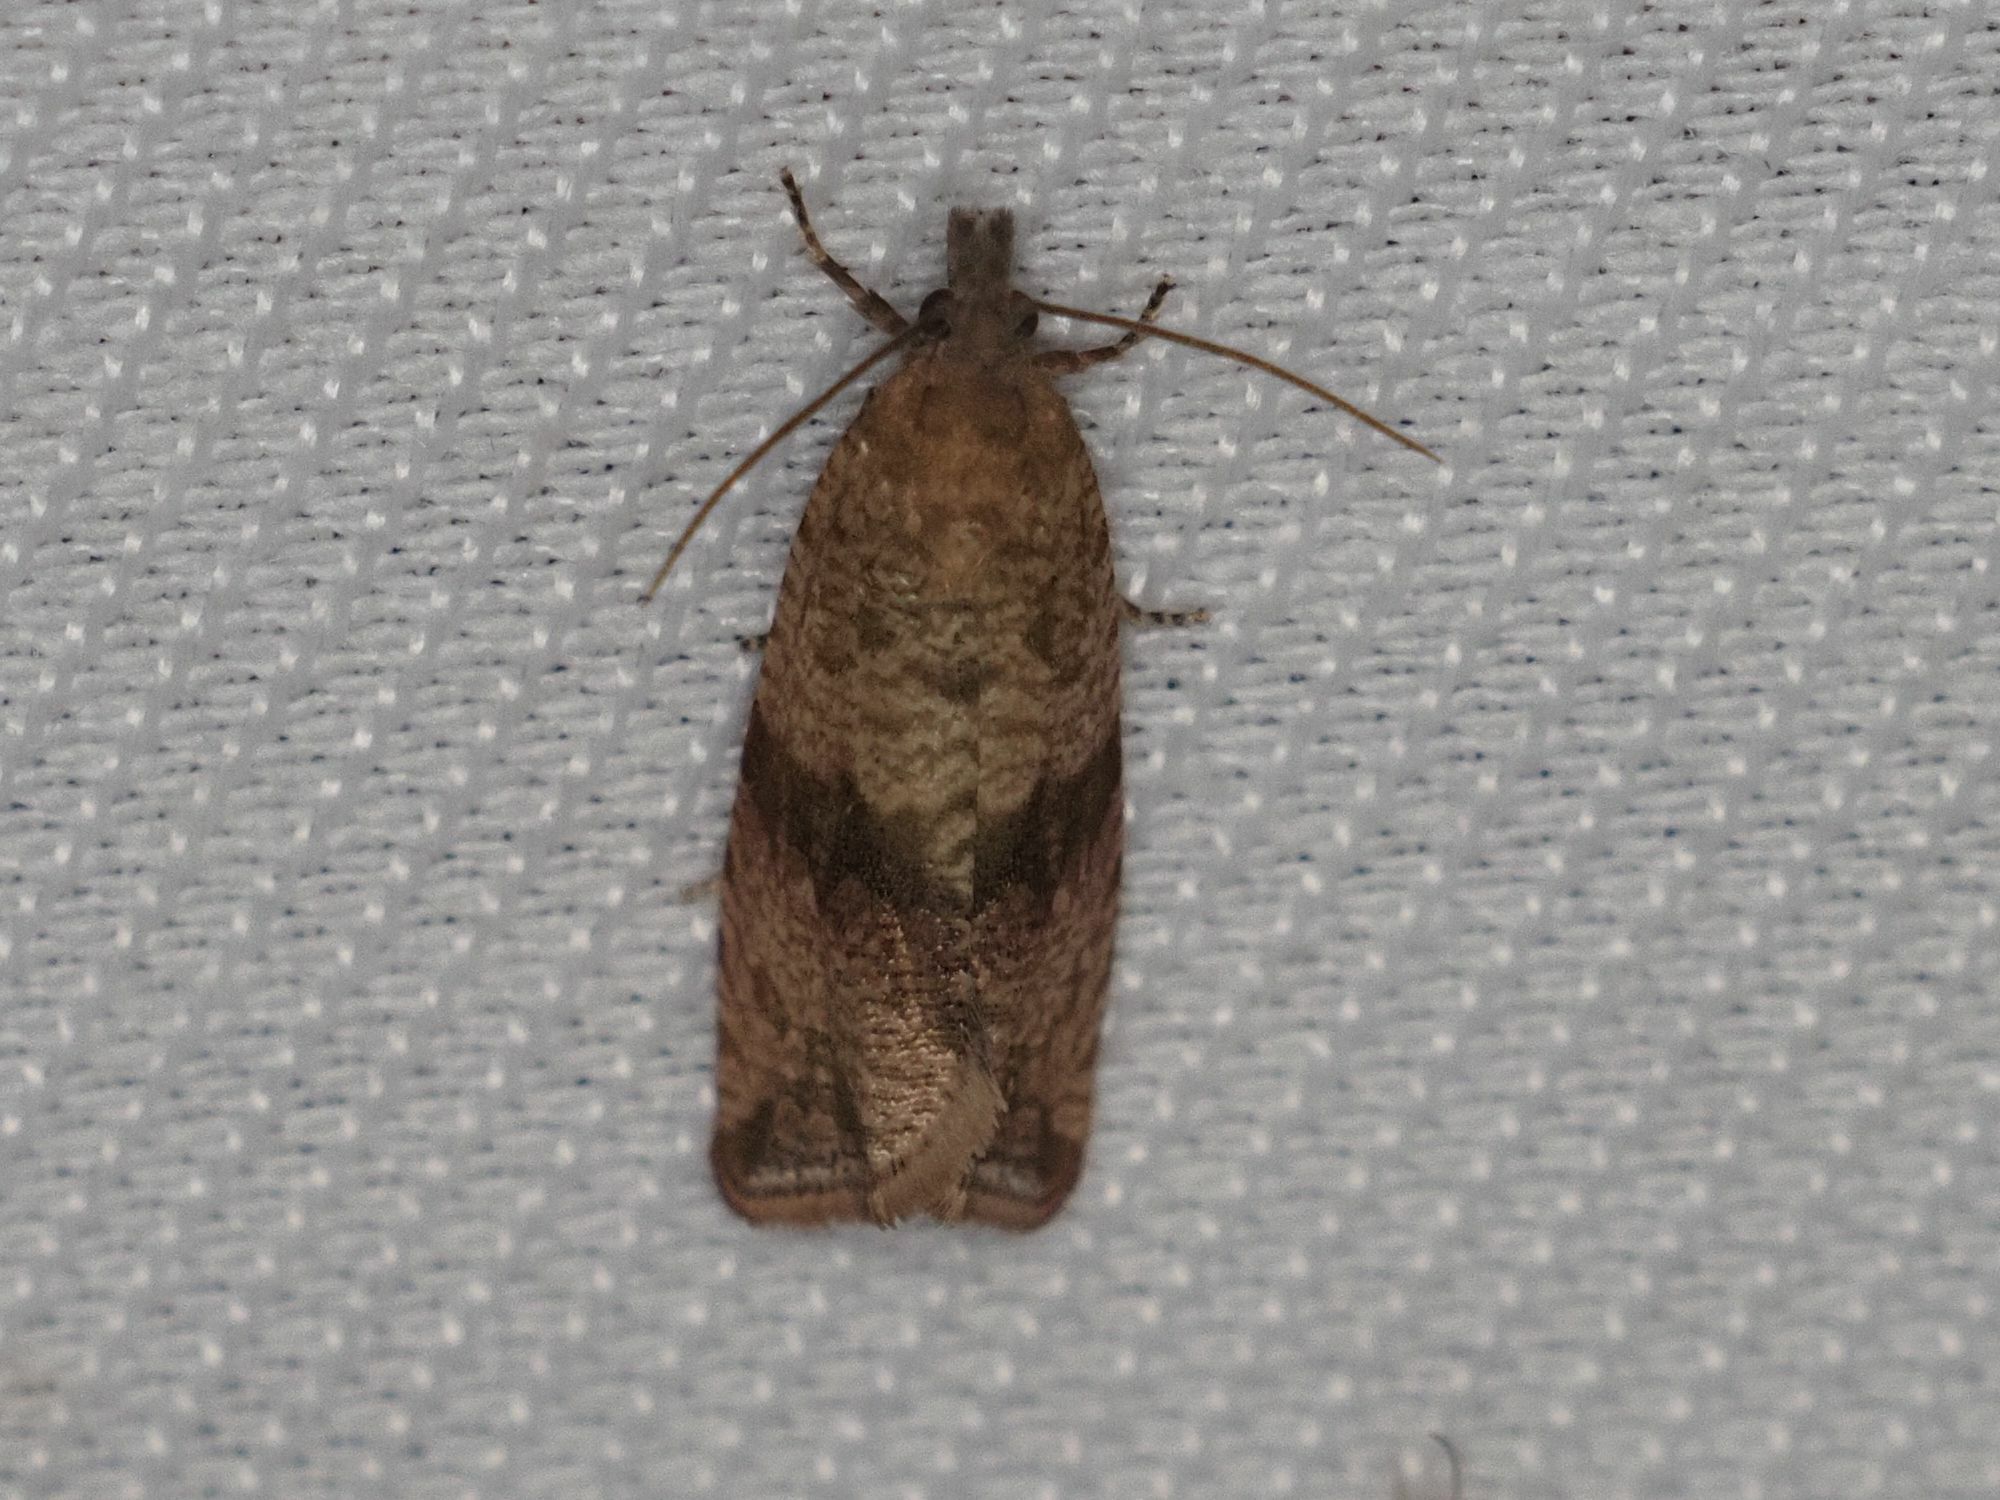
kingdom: Animalia
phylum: Arthropoda
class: Insecta
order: Lepidoptera
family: Tortricidae
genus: Celypha
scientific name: Celypha striana
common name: Barred marble
